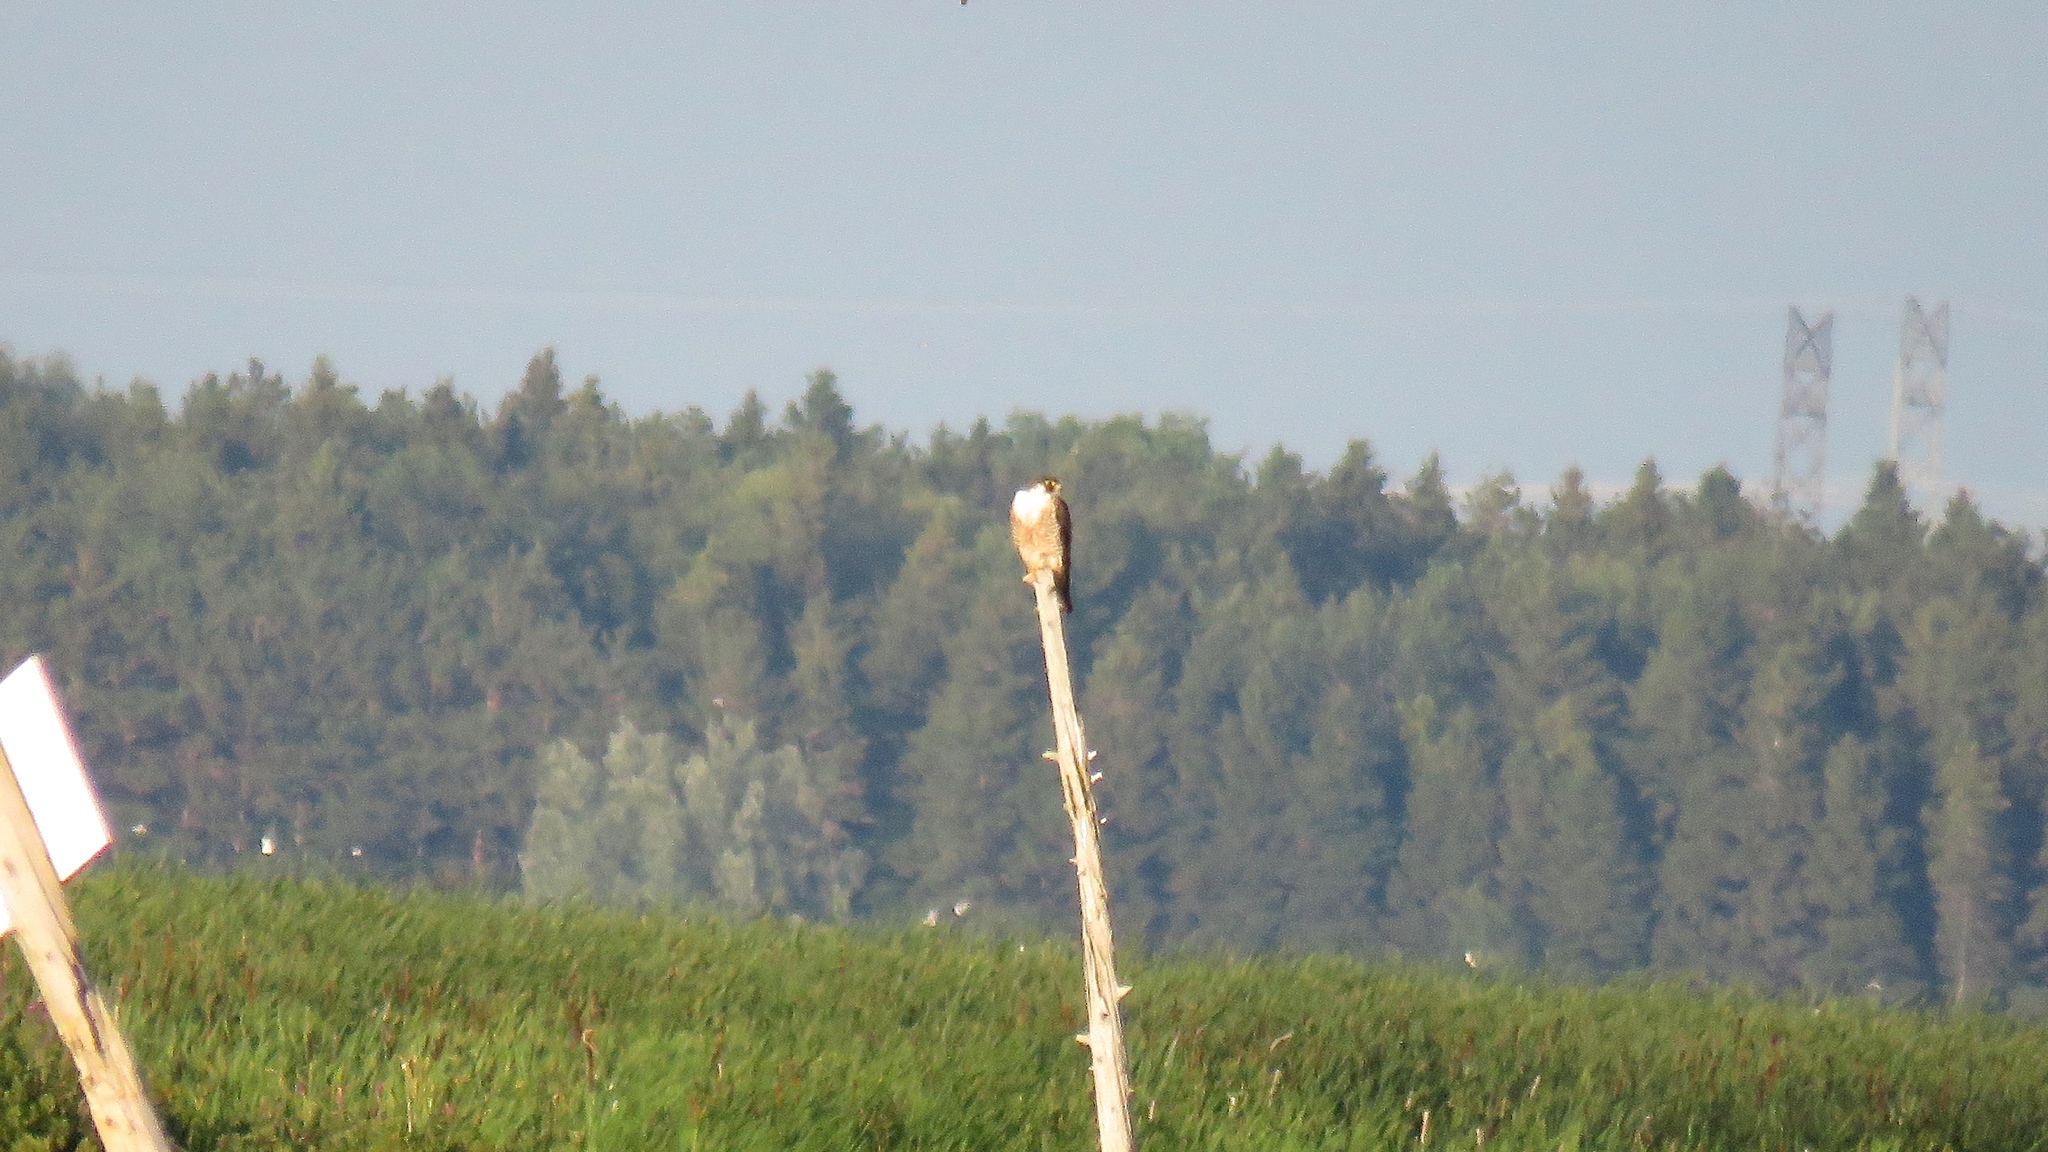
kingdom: Animalia
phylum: Chordata
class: Aves
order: Falconiformes
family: Falconidae
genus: Falco
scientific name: Falco peregrinus
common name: Peregrine falcon
